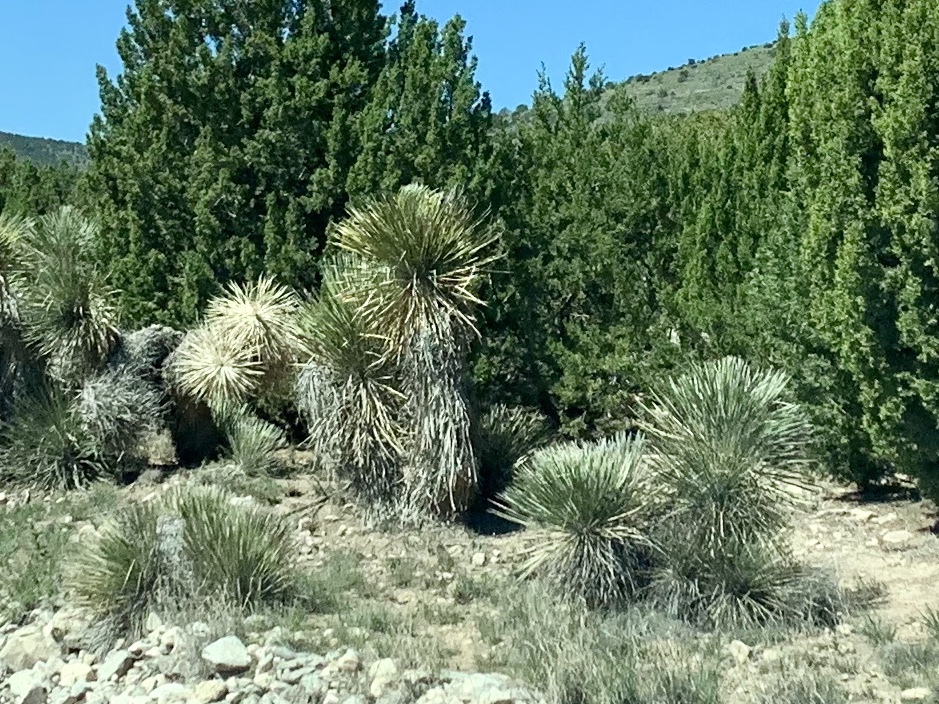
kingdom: Plantae
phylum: Tracheophyta
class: Liliopsida
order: Asparagales
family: Asparagaceae
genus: Yucca
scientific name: Yucca elata
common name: Palmella
